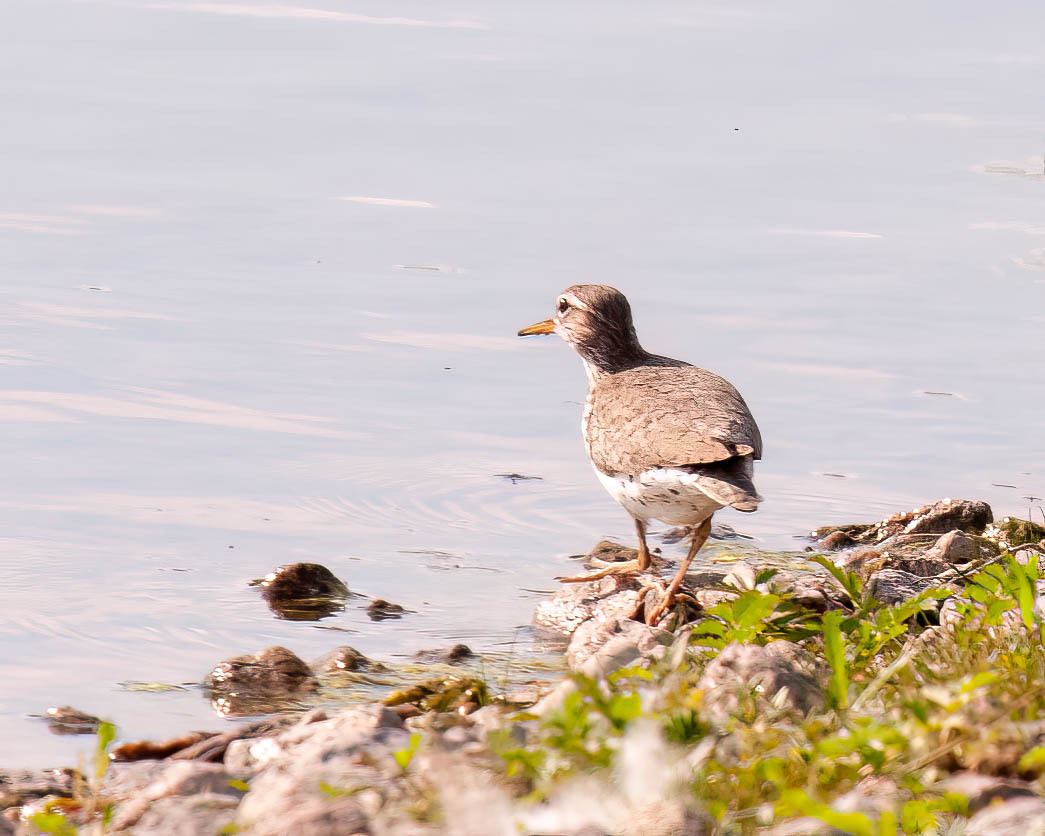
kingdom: Animalia
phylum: Chordata
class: Aves
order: Charadriiformes
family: Scolopacidae
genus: Actitis
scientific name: Actitis macularius
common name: Spotted sandpiper
